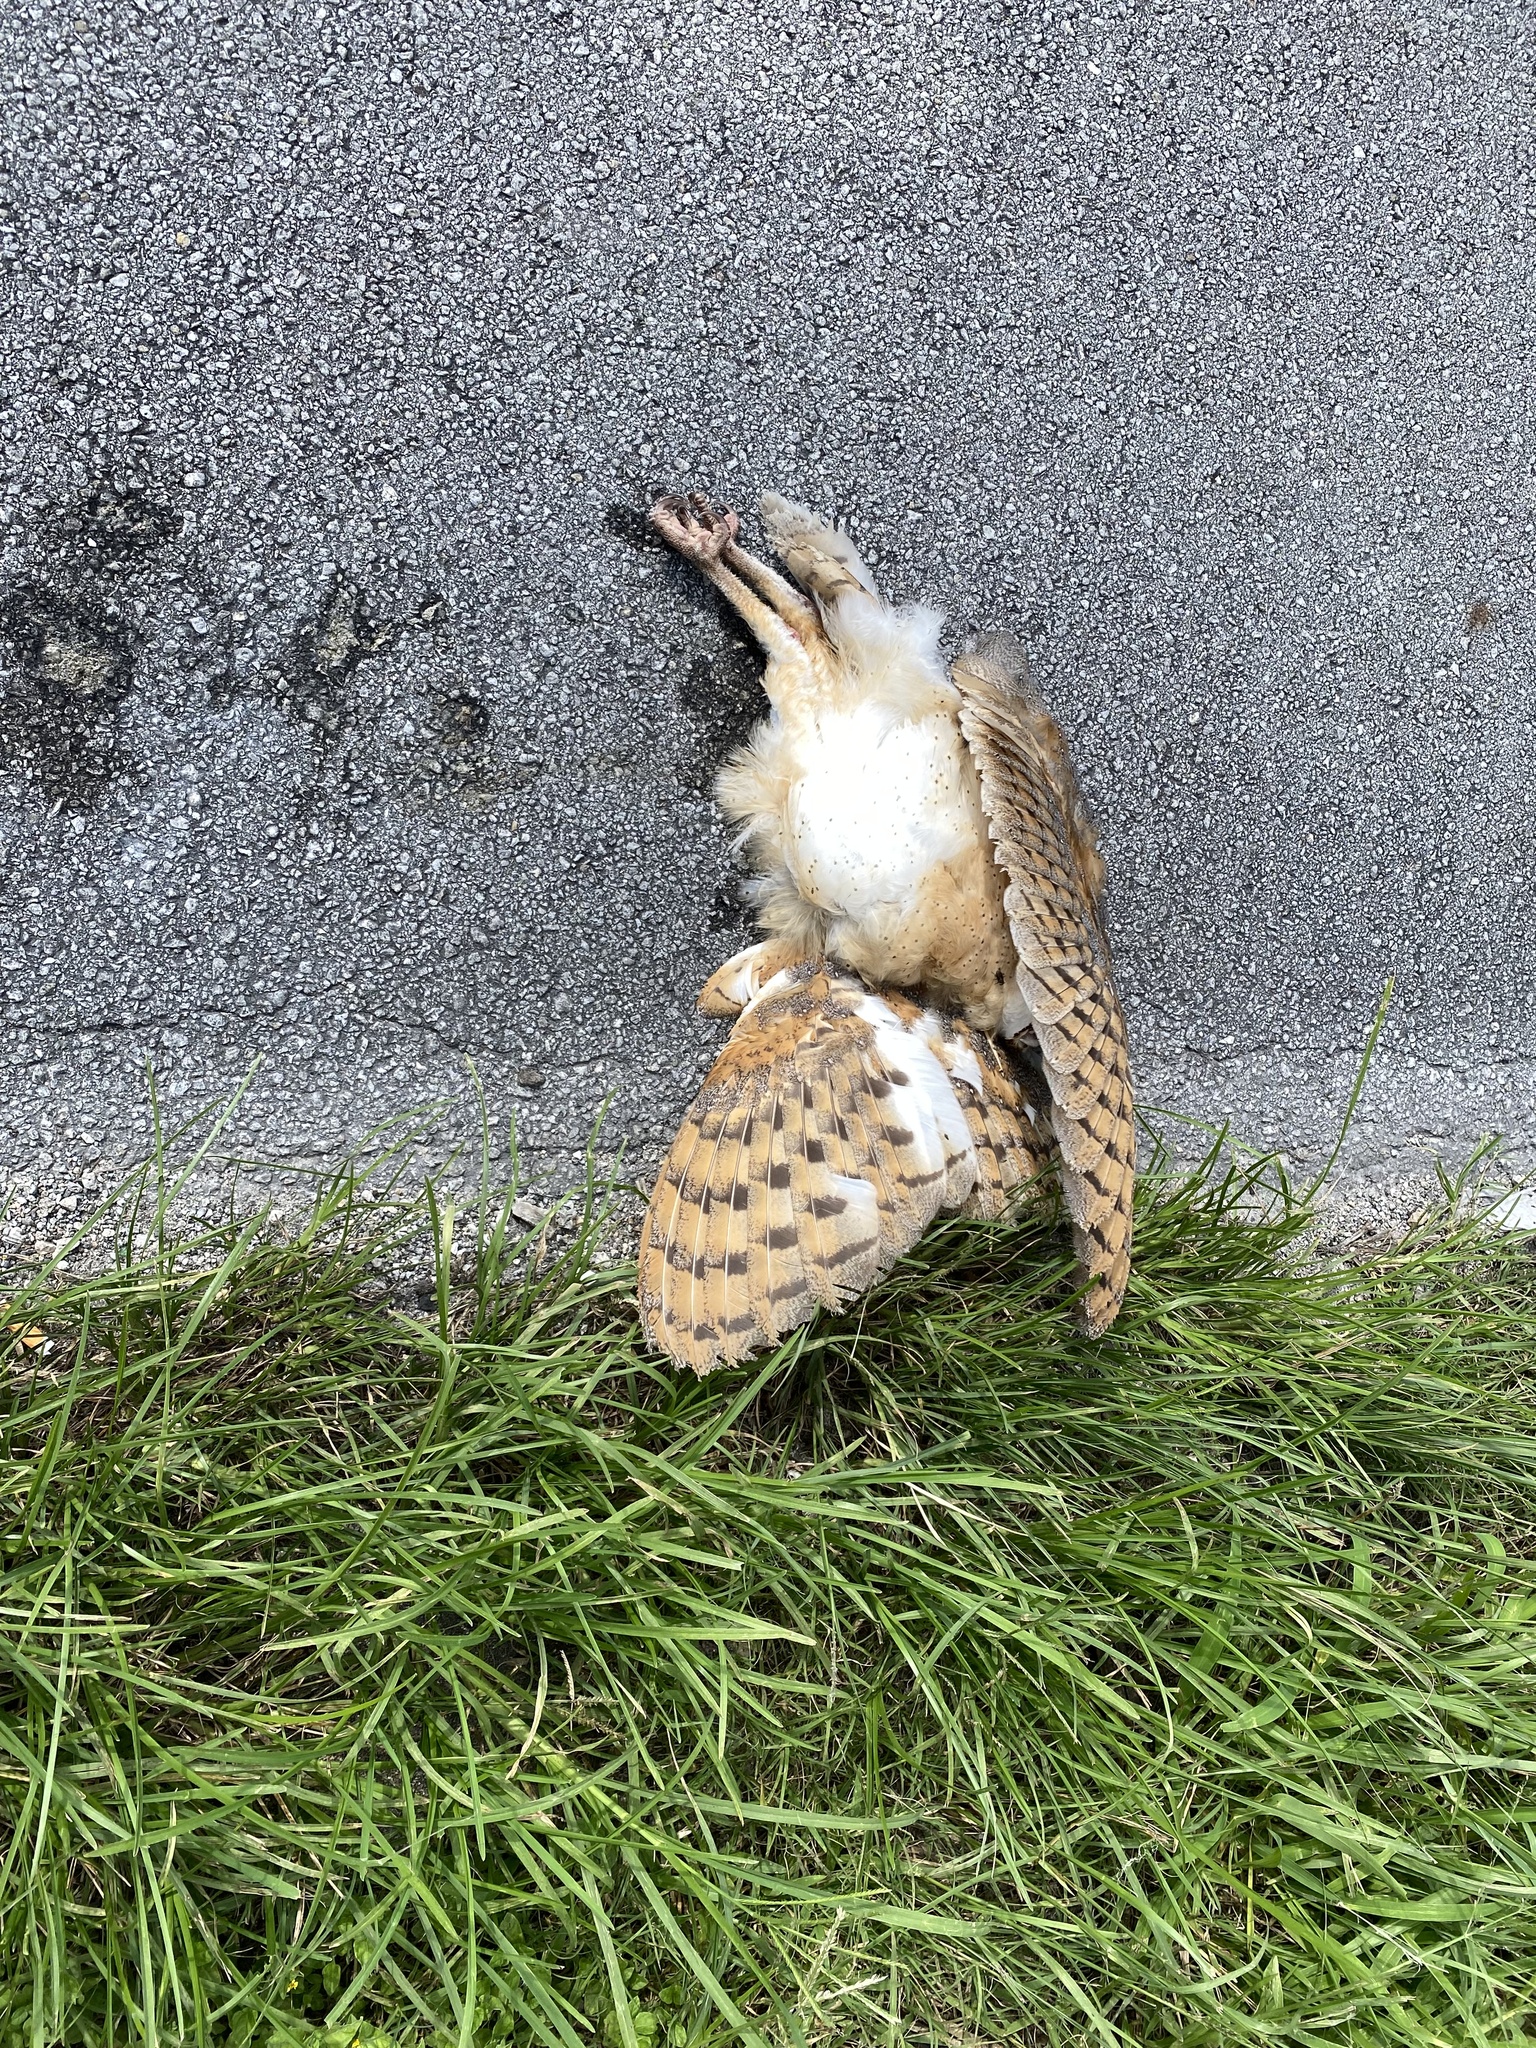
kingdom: Animalia
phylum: Chordata
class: Aves
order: Strigiformes
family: Tytonidae
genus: Tyto
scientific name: Tyto alba
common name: Barn owl
